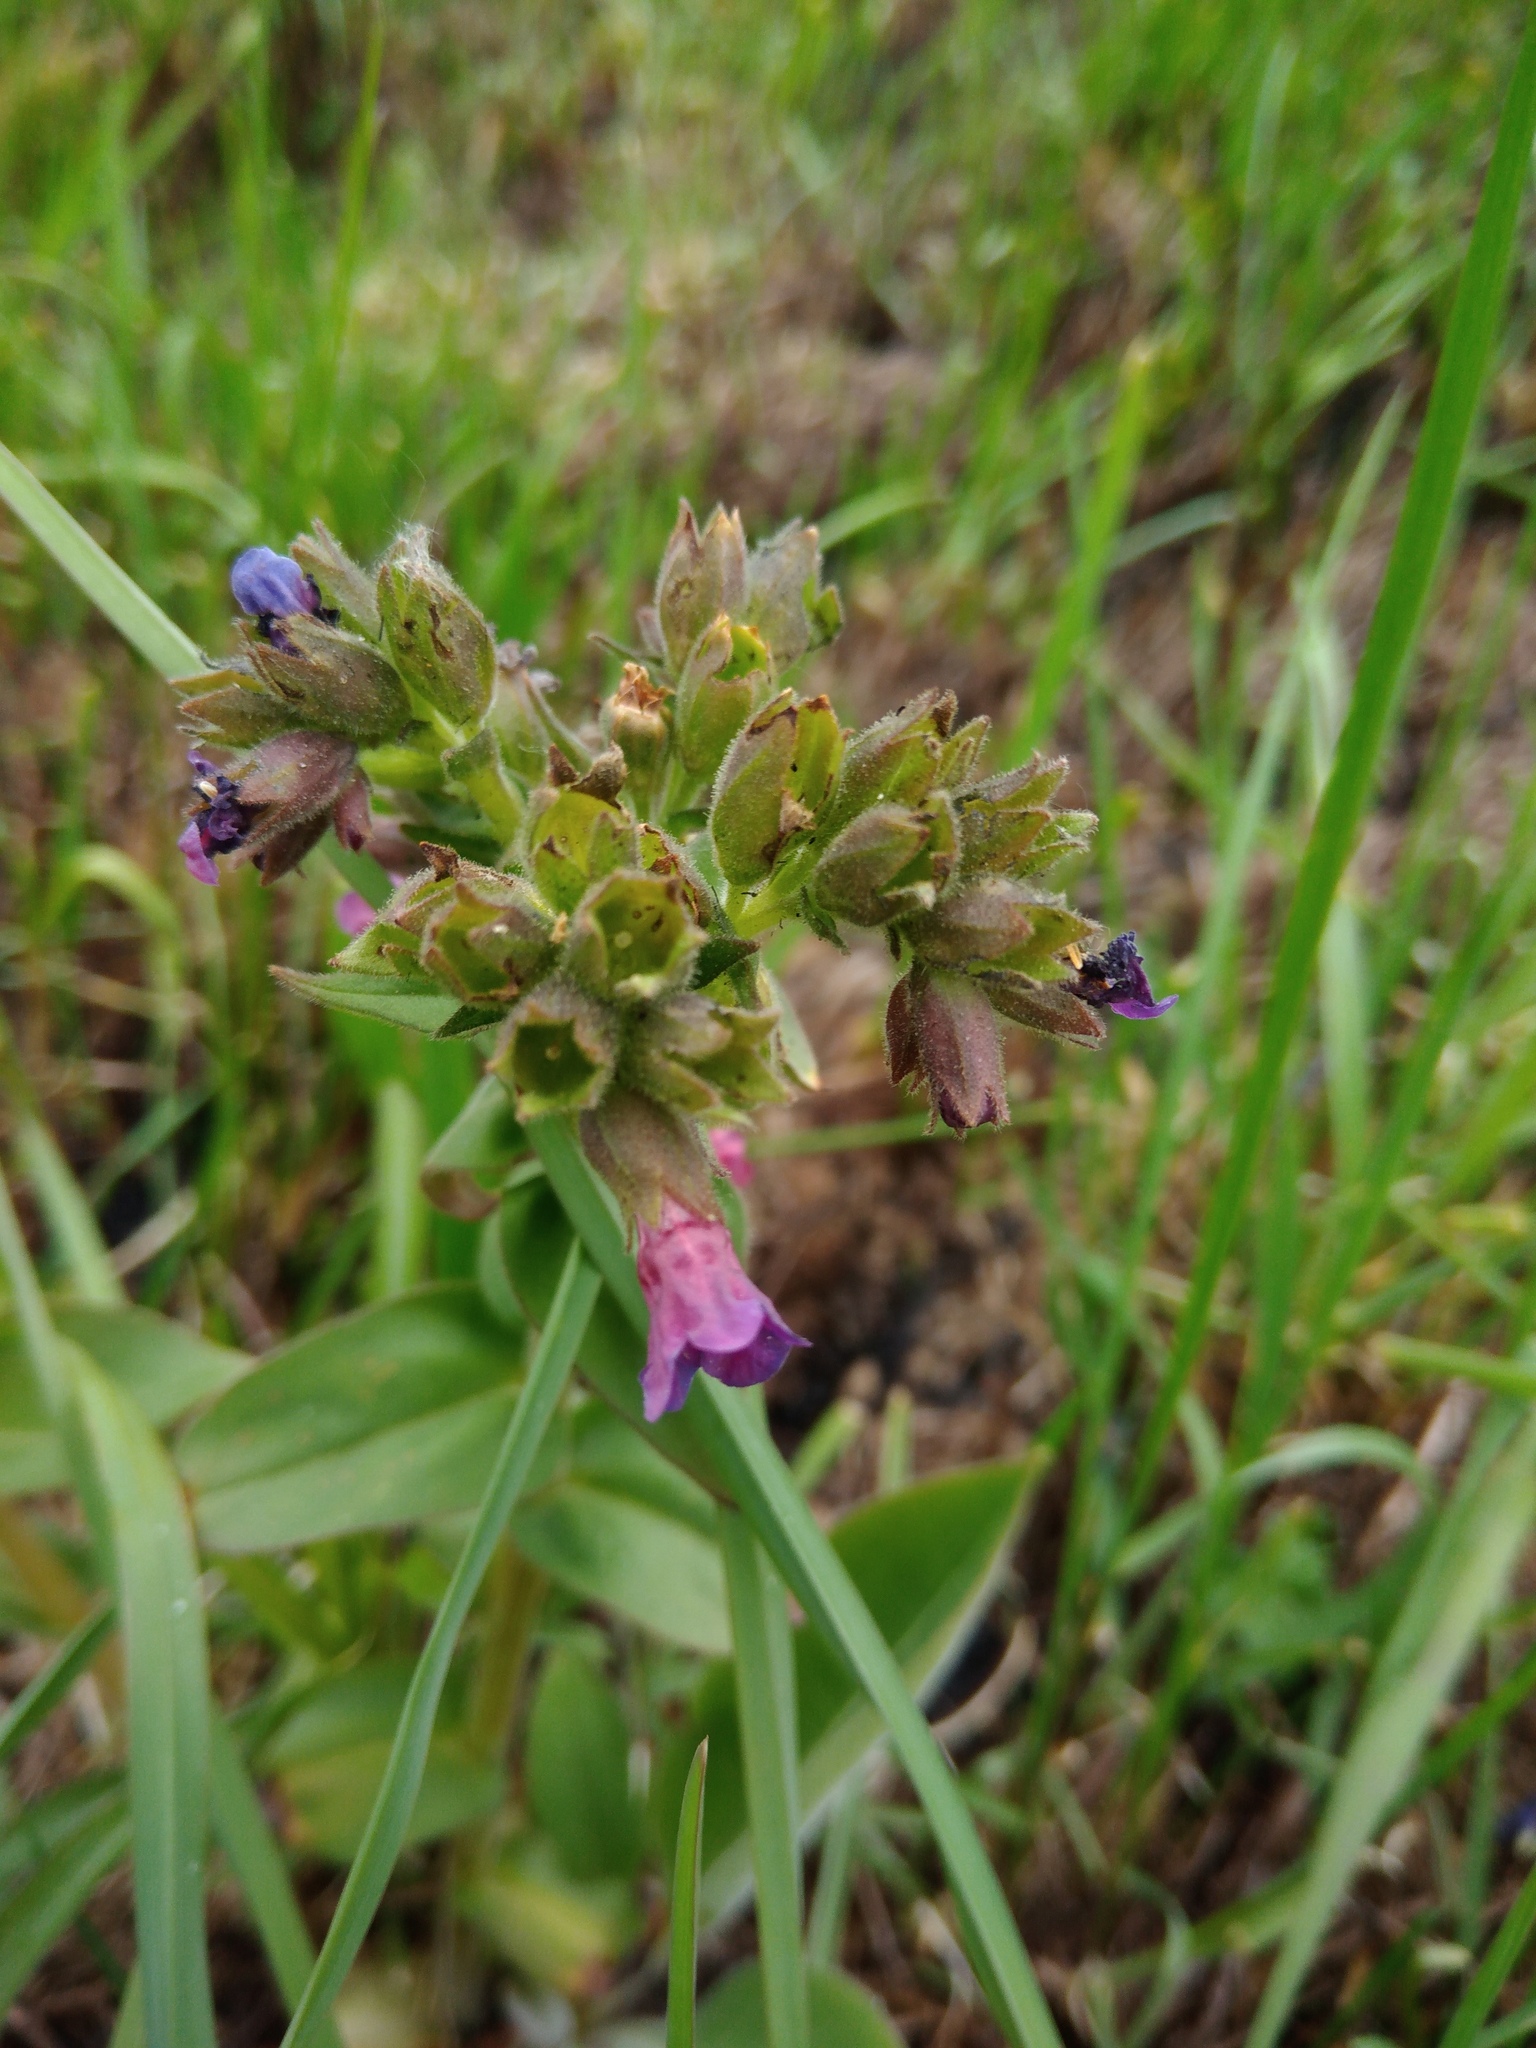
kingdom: Plantae
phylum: Tracheophyta
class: Magnoliopsida
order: Boraginales
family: Boraginaceae
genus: Pulmonaria
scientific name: Pulmonaria mollis
